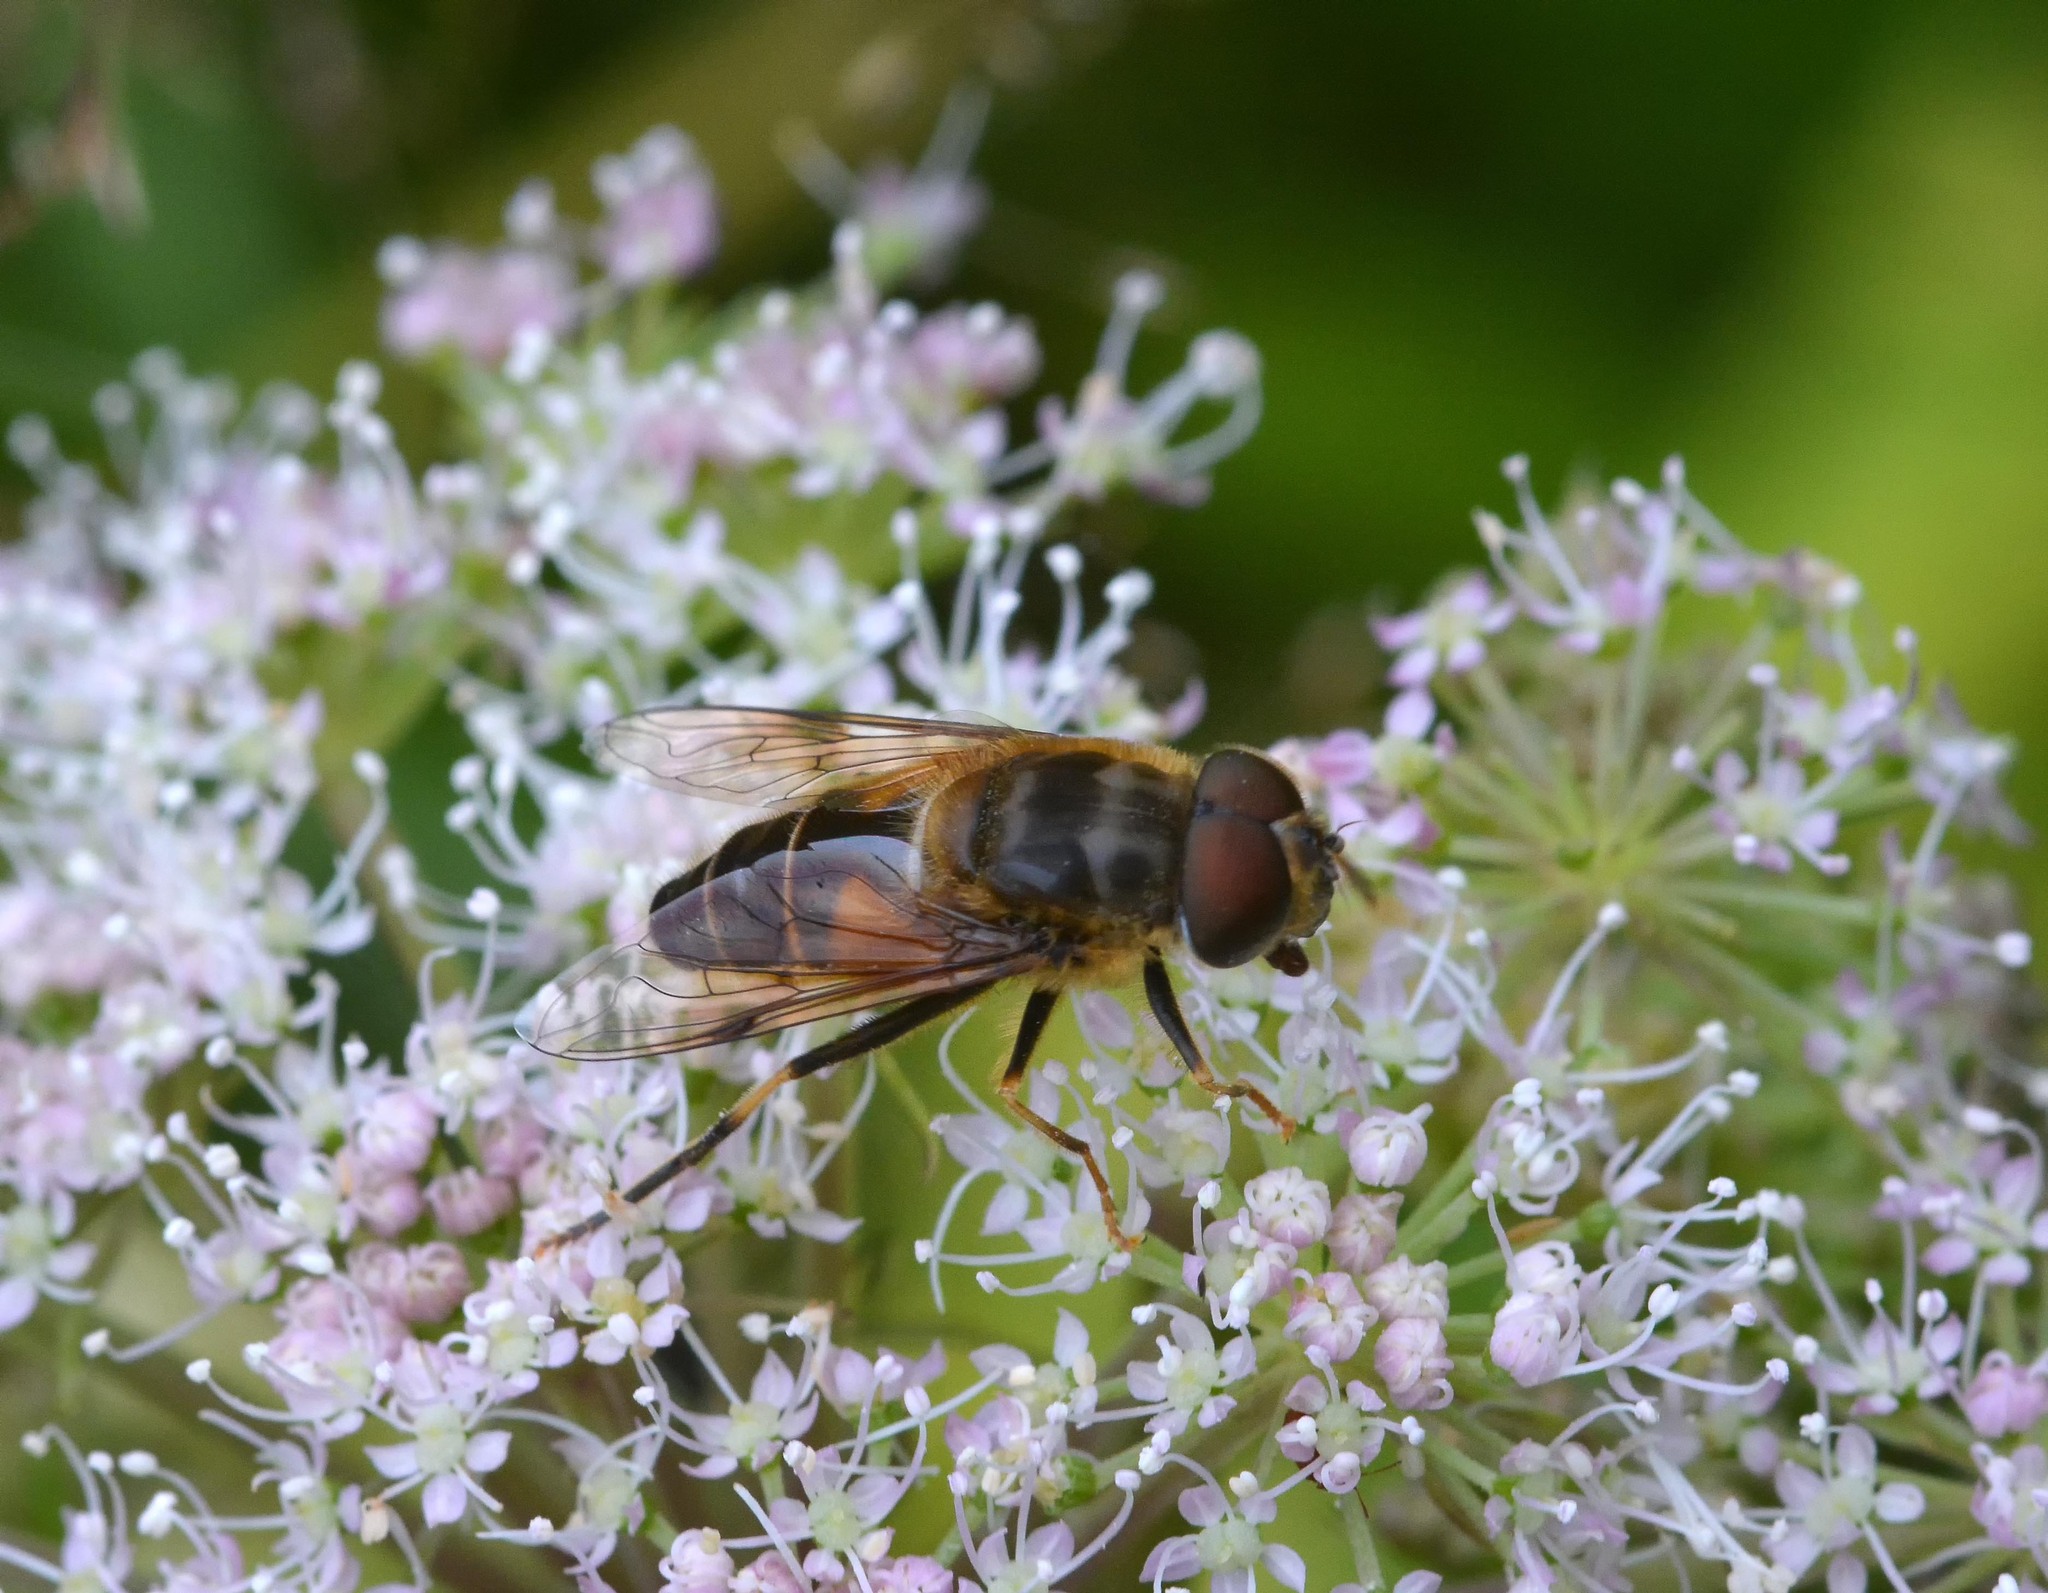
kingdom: Animalia
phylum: Arthropoda
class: Insecta
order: Diptera
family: Syrphidae
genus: Eristalis
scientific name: Eristalis pertinax
